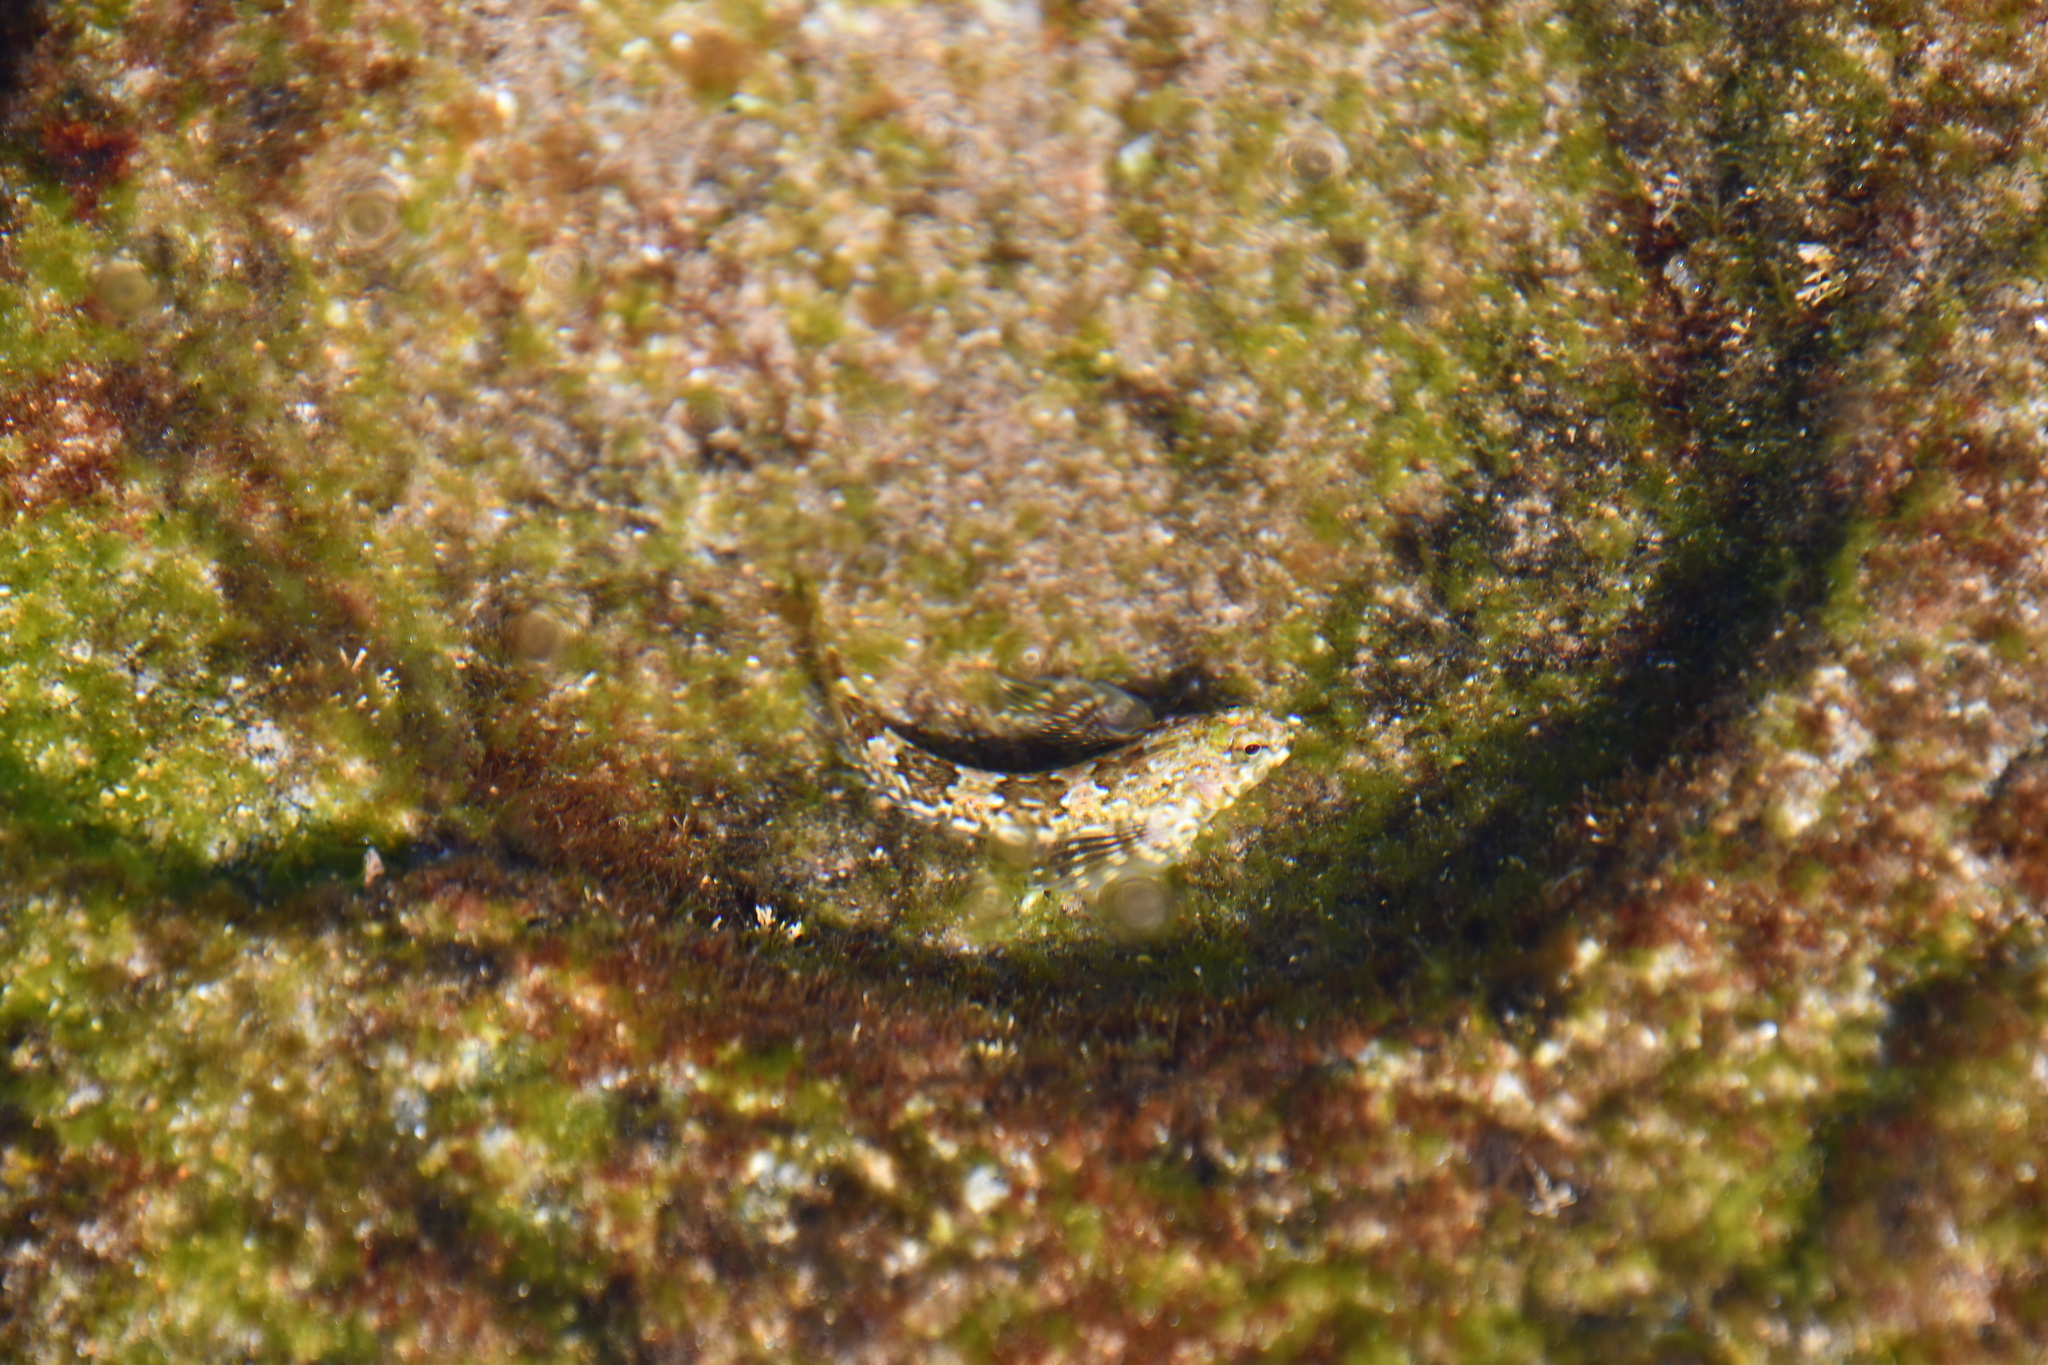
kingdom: Animalia
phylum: Chordata
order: Perciformes
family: Tripterygiidae
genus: Lepidoblennius
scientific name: Lepidoblennius haplodactylus
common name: Eastern jumping blenny
